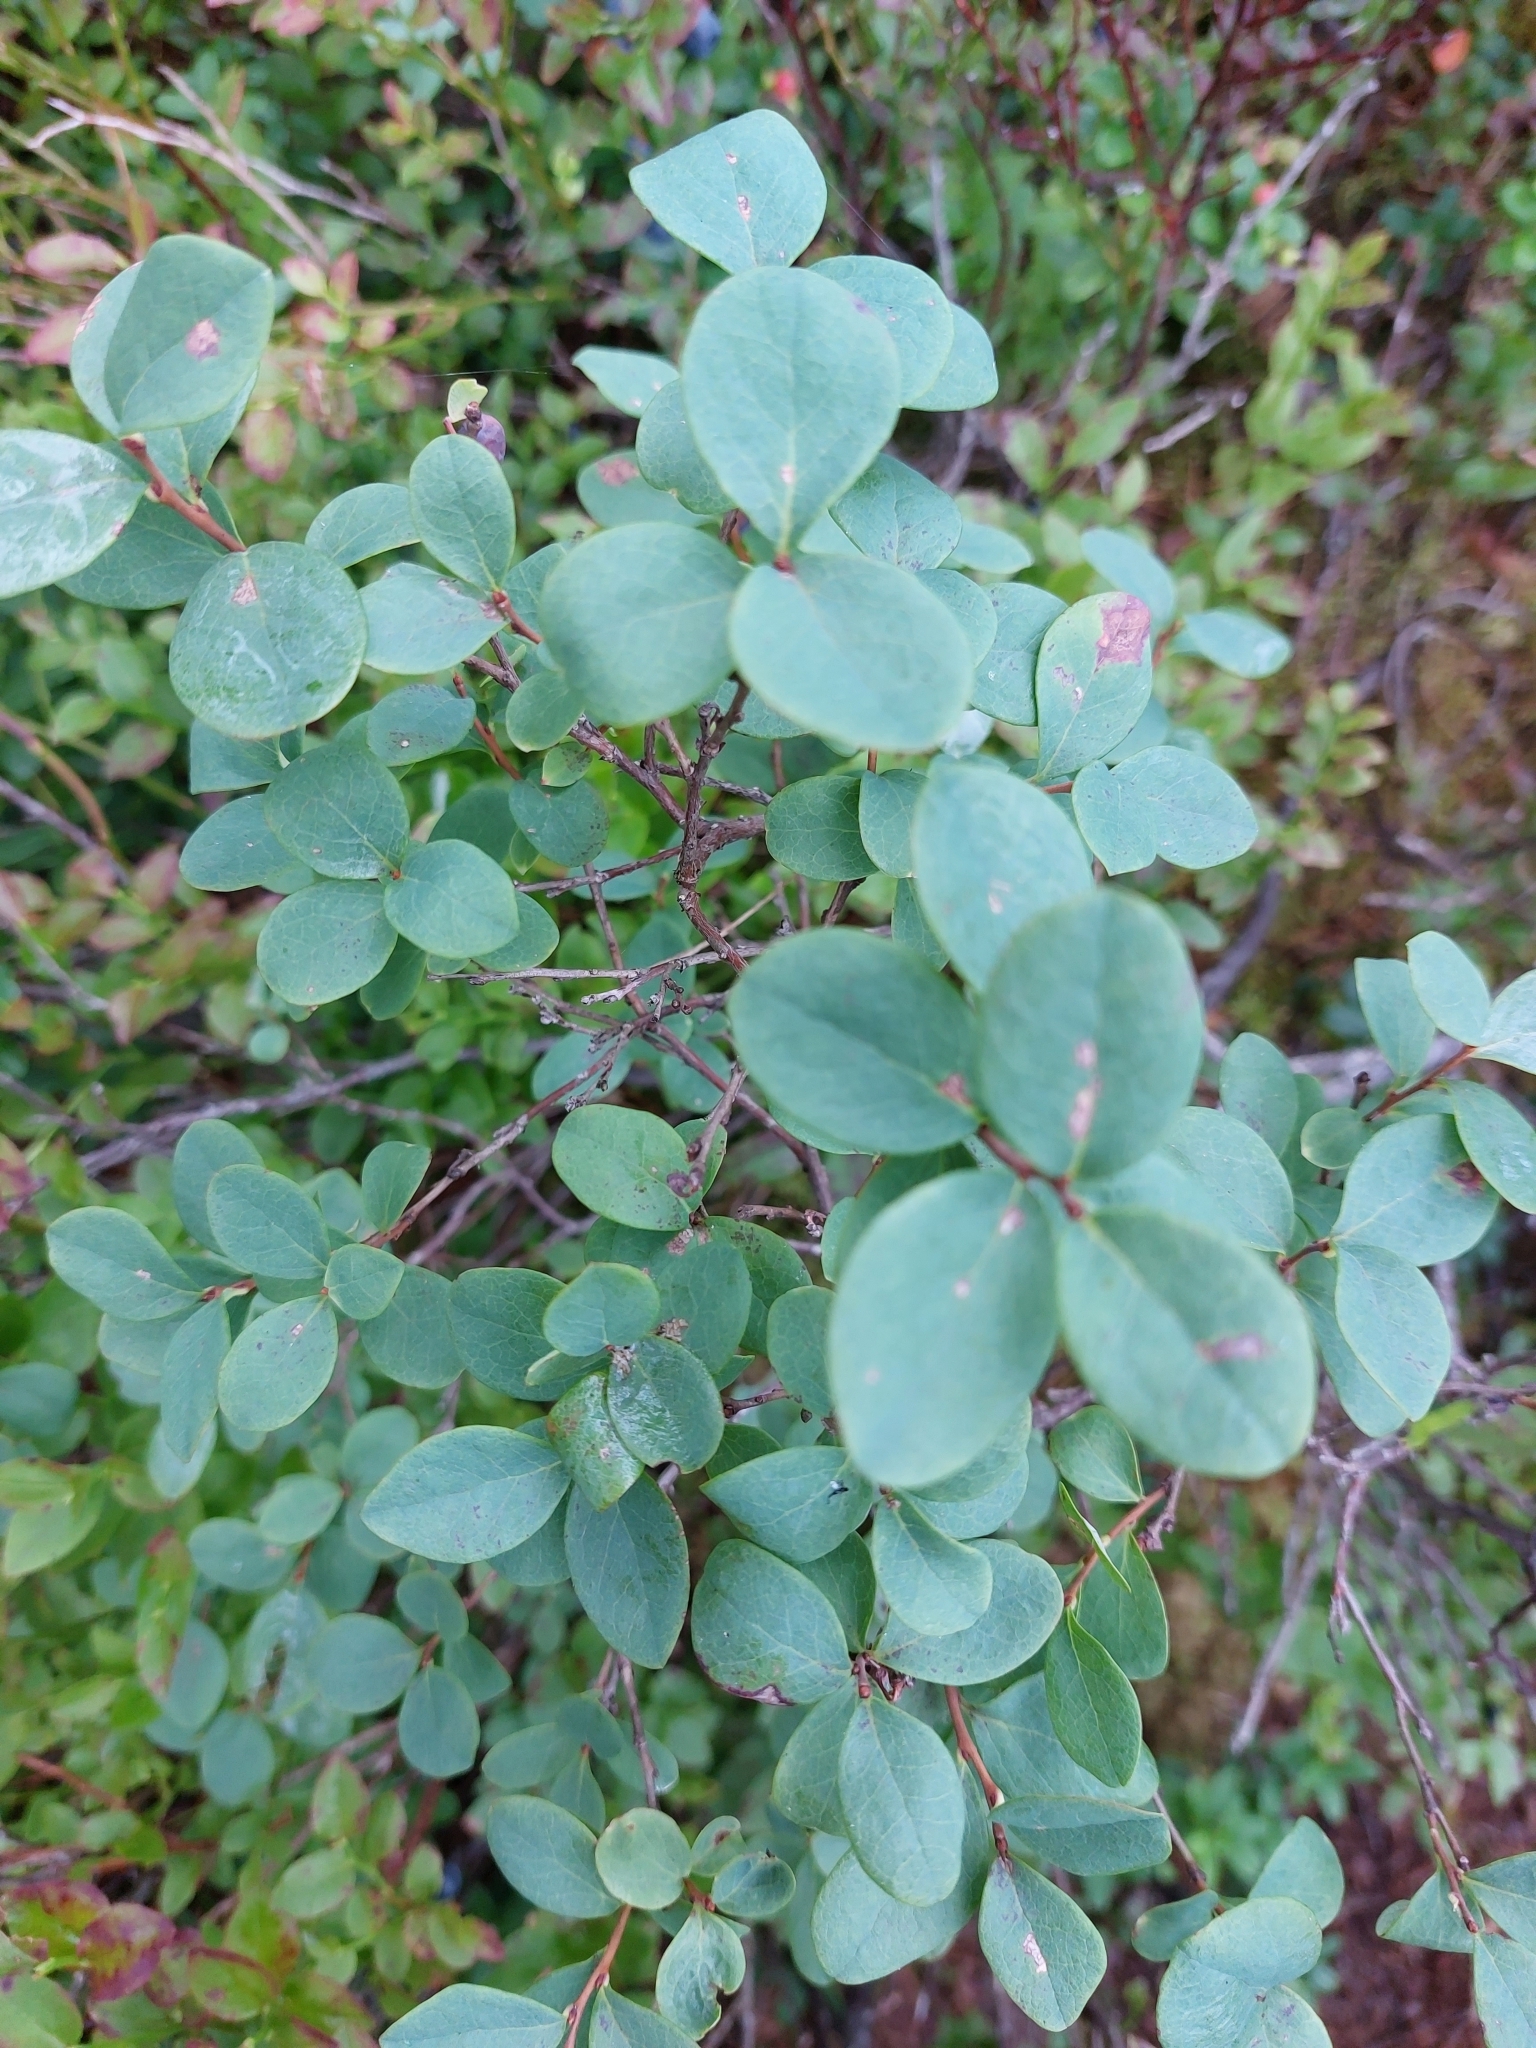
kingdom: Plantae
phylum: Tracheophyta
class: Magnoliopsida
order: Ericales
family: Ericaceae
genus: Vaccinium
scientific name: Vaccinium uliginosum
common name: Bog bilberry
